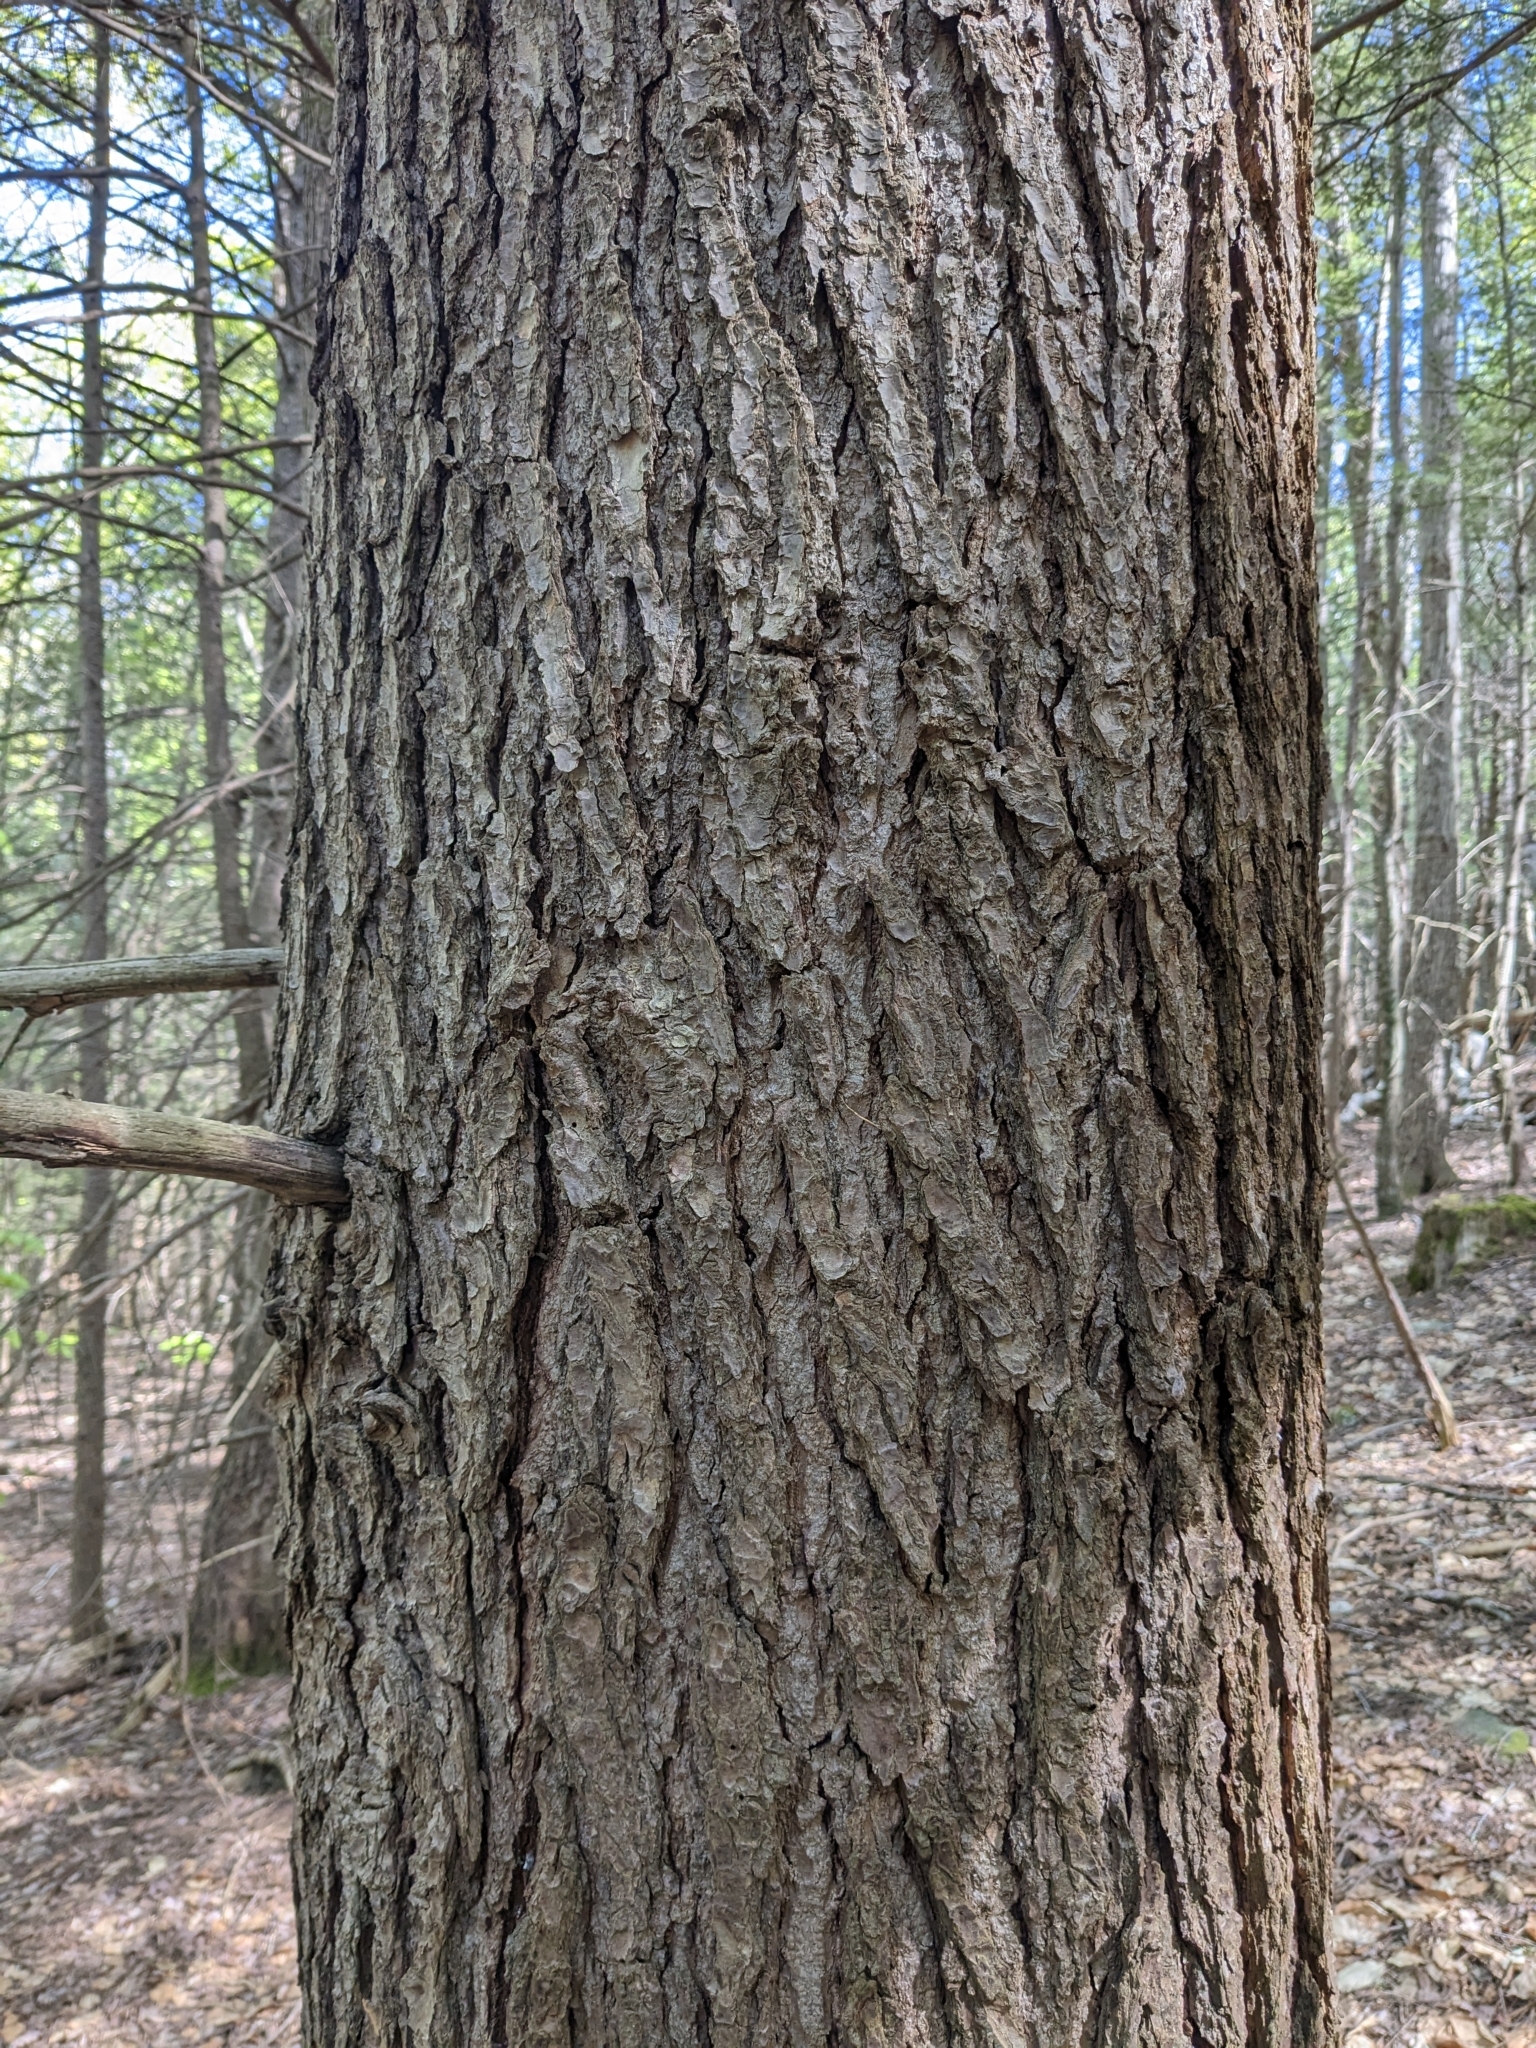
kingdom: Plantae
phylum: Tracheophyta
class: Pinopsida
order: Pinales
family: Pinaceae
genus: Pinus
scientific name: Pinus strobus
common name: Weymouth pine
